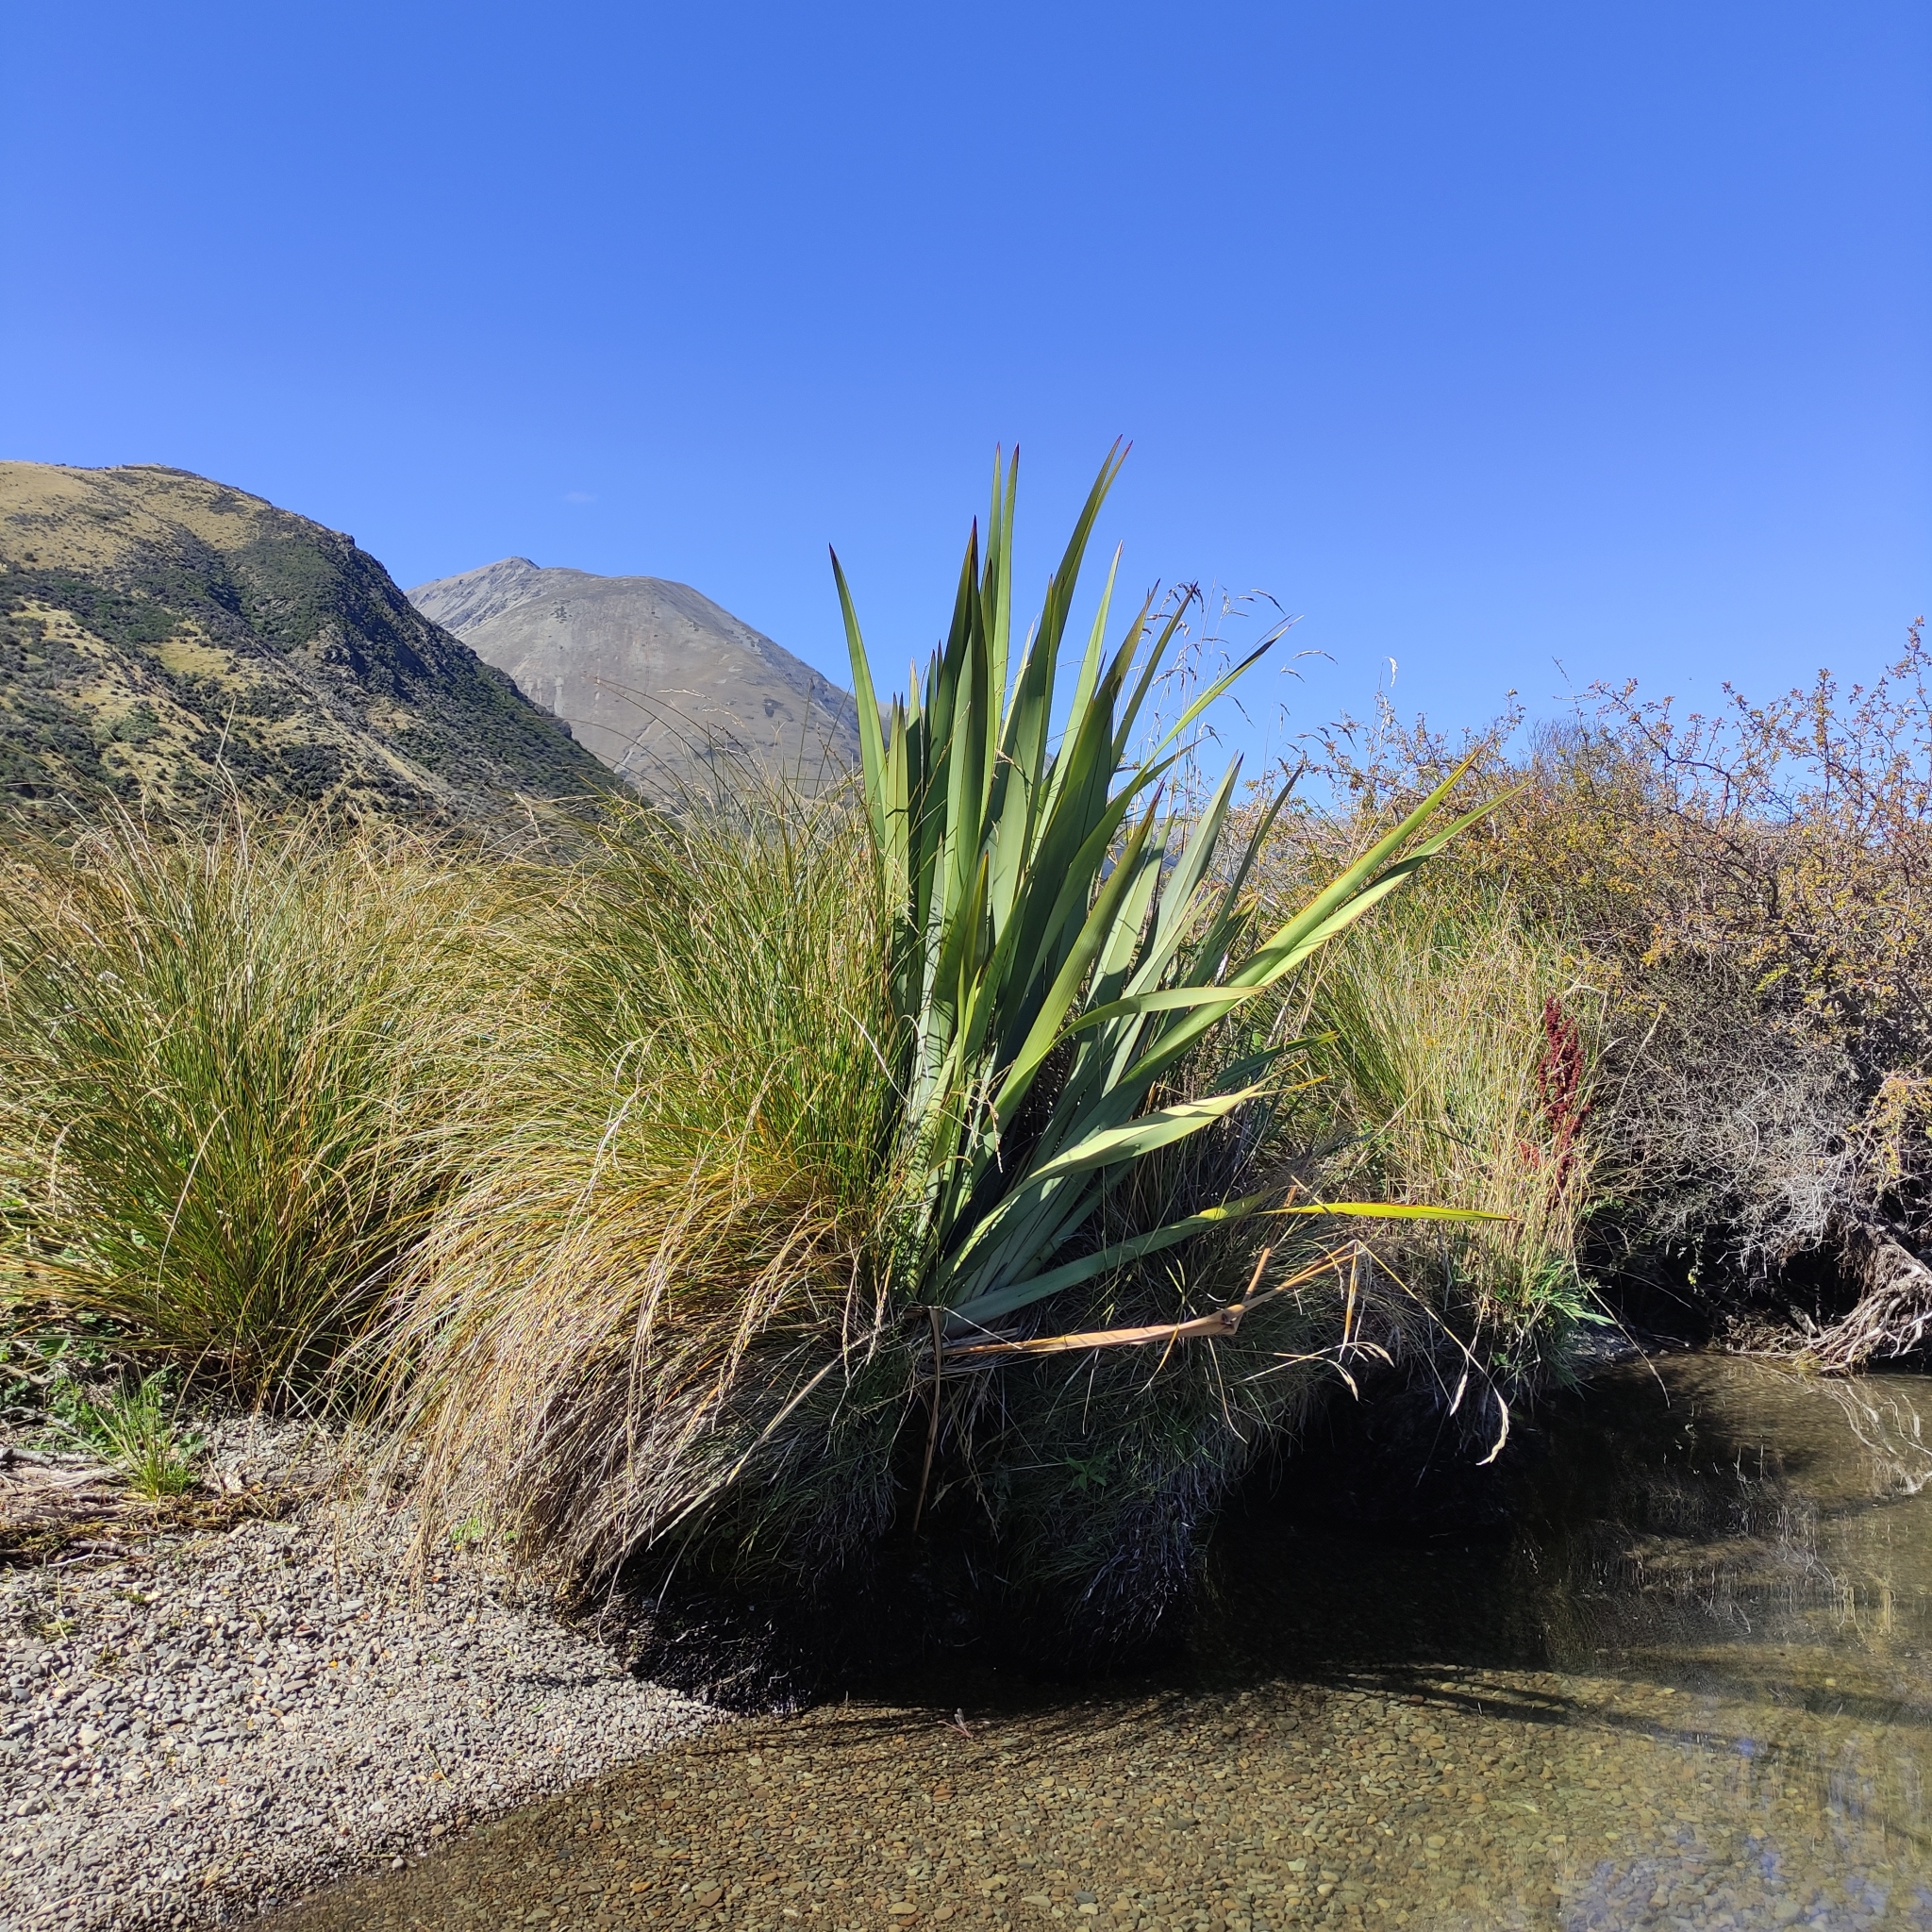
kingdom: Plantae
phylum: Tracheophyta
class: Liliopsida
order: Asparagales
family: Asphodelaceae
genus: Phormium
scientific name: Phormium tenax
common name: New zealand flax
